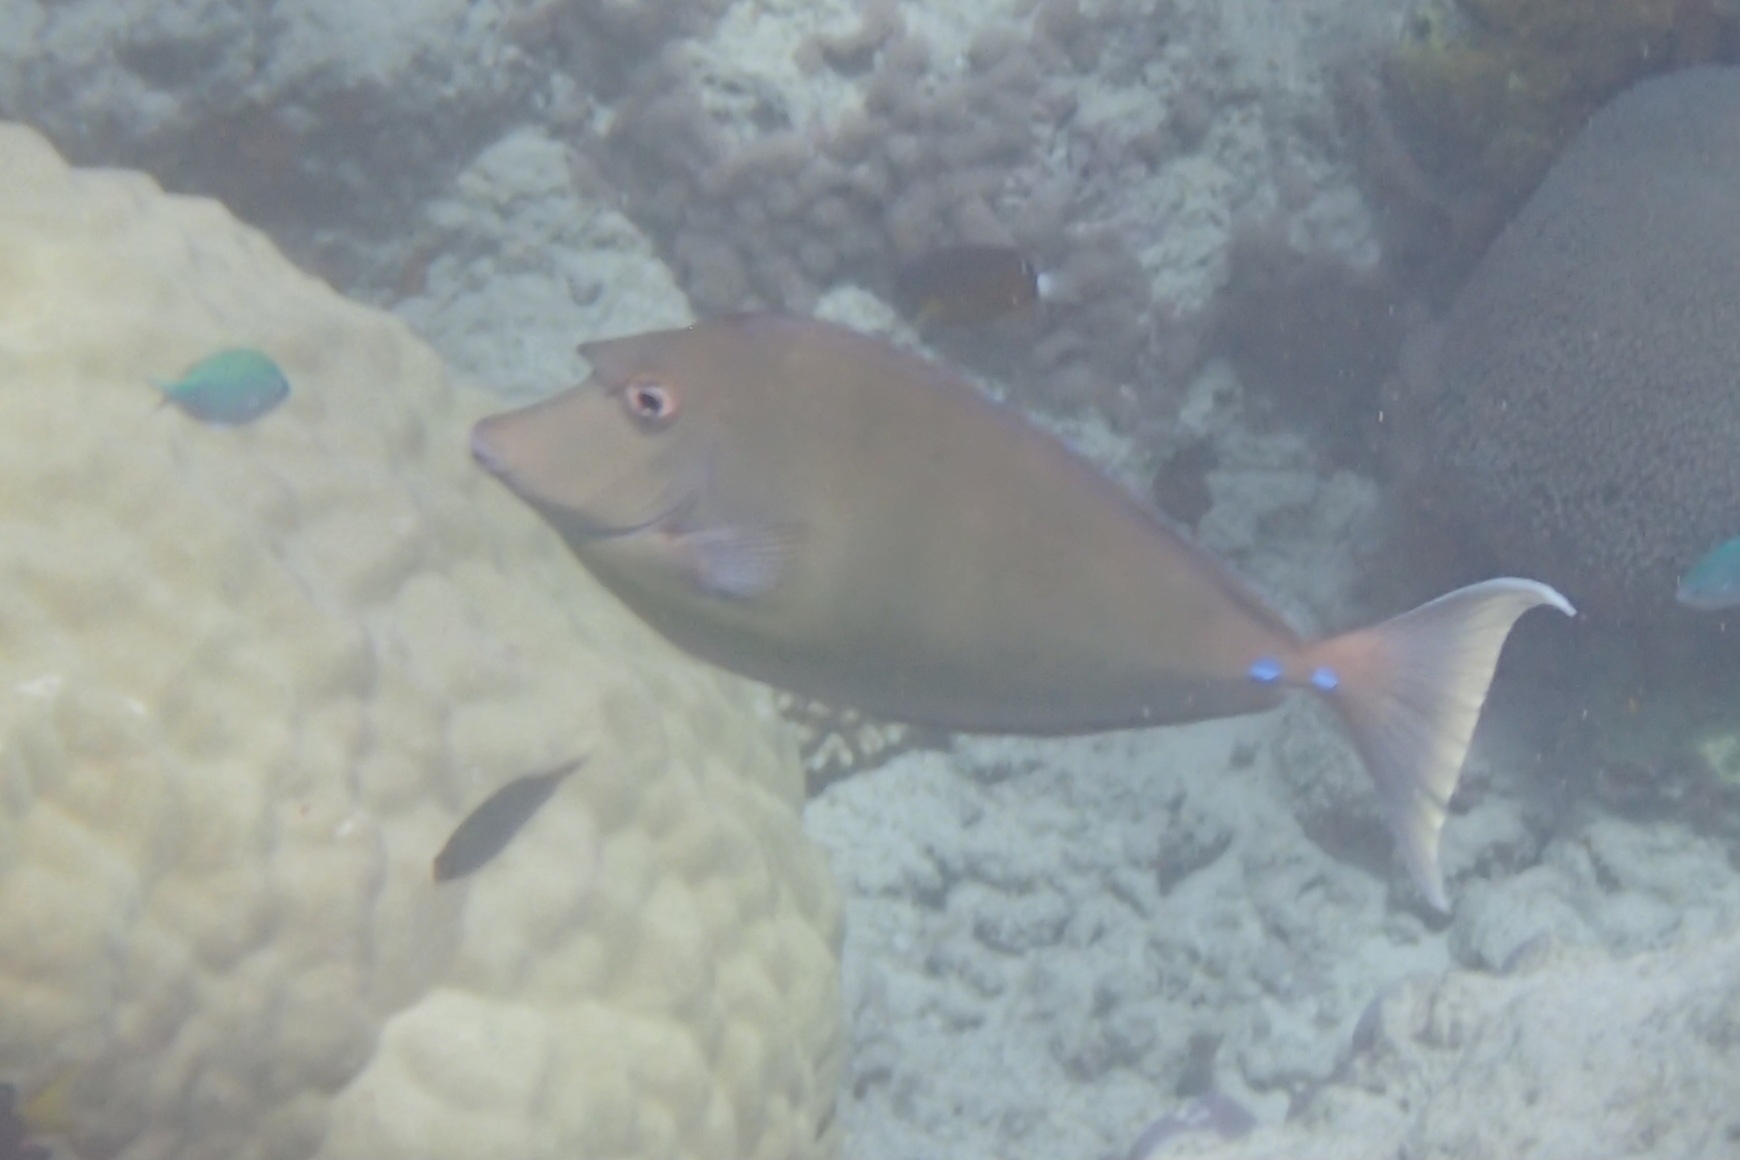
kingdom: Animalia
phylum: Chordata
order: Perciformes
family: Acanthuridae
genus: Naso
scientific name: Naso unicornis
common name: Bluespine unicornfish
